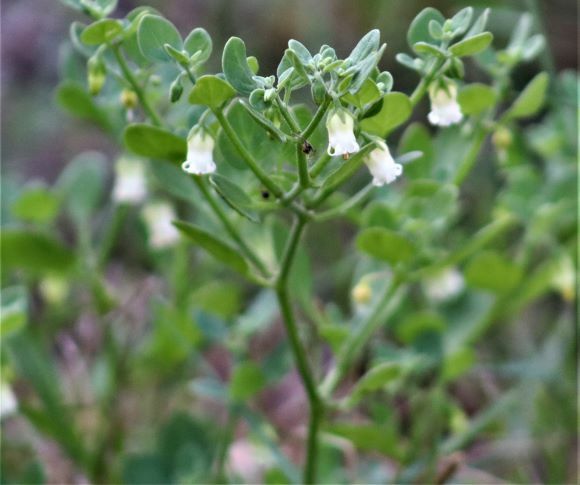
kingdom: Plantae
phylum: Tracheophyta
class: Magnoliopsida
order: Solanales
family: Solanaceae
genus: Salpichroa
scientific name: Salpichroa origanifolia
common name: Lily-of-the-valley-vine
